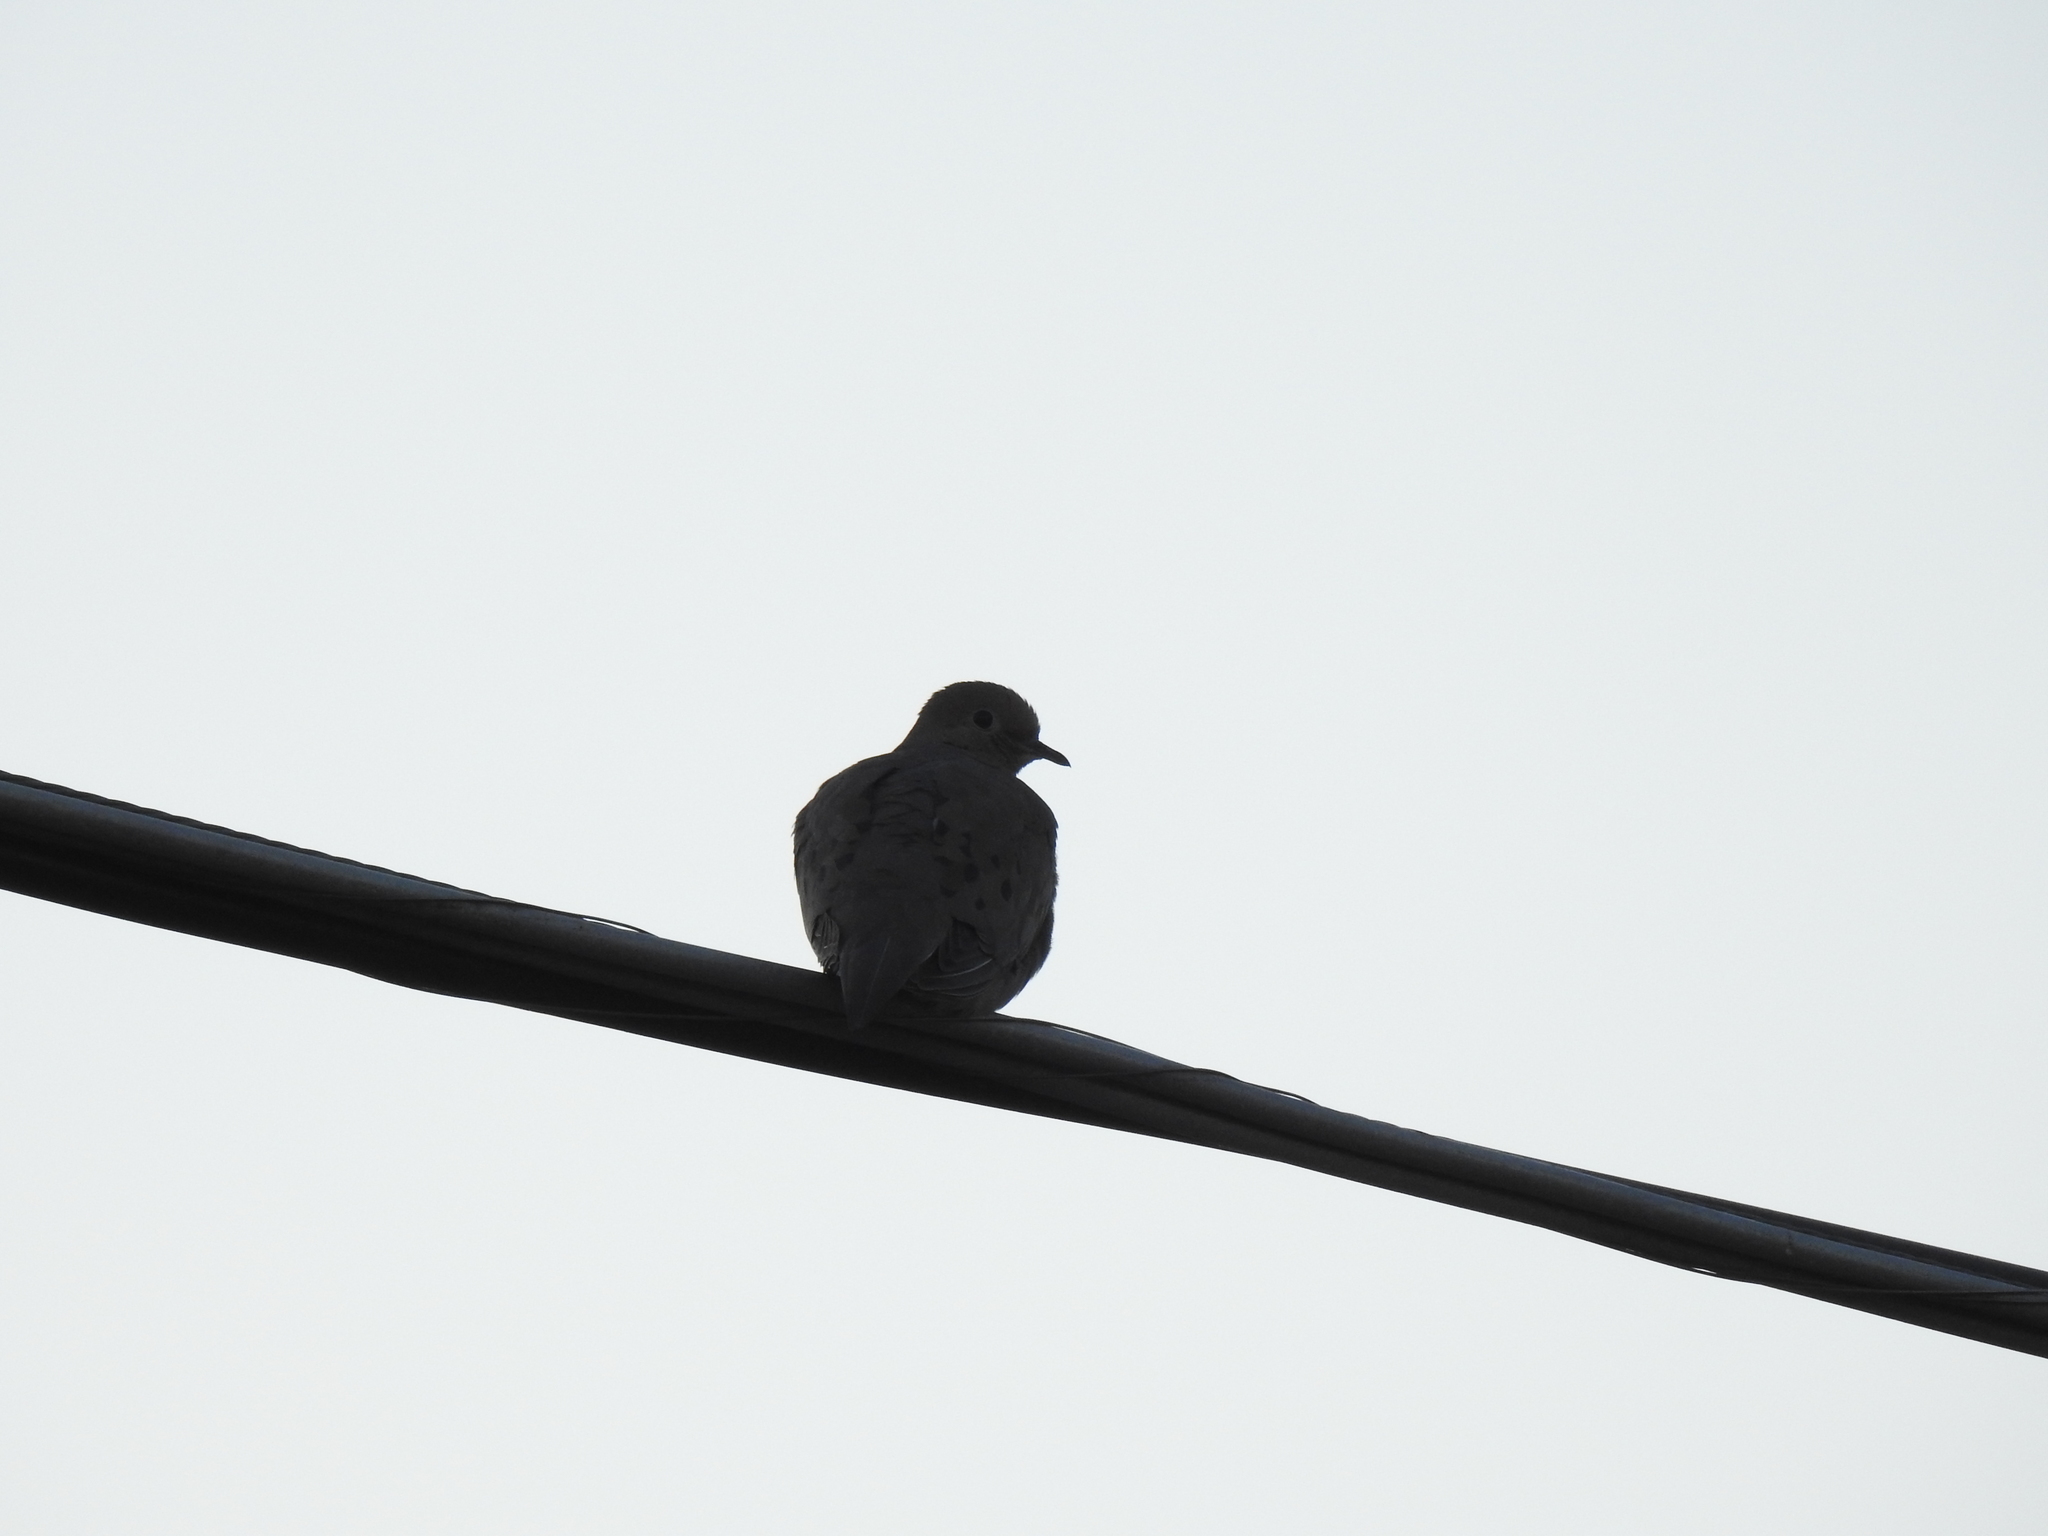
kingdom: Animalia
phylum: Chordata
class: Aves
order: Columbiformes
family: Columbidae
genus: Zenaida
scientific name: Zenaida macroura
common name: Mourning dove
